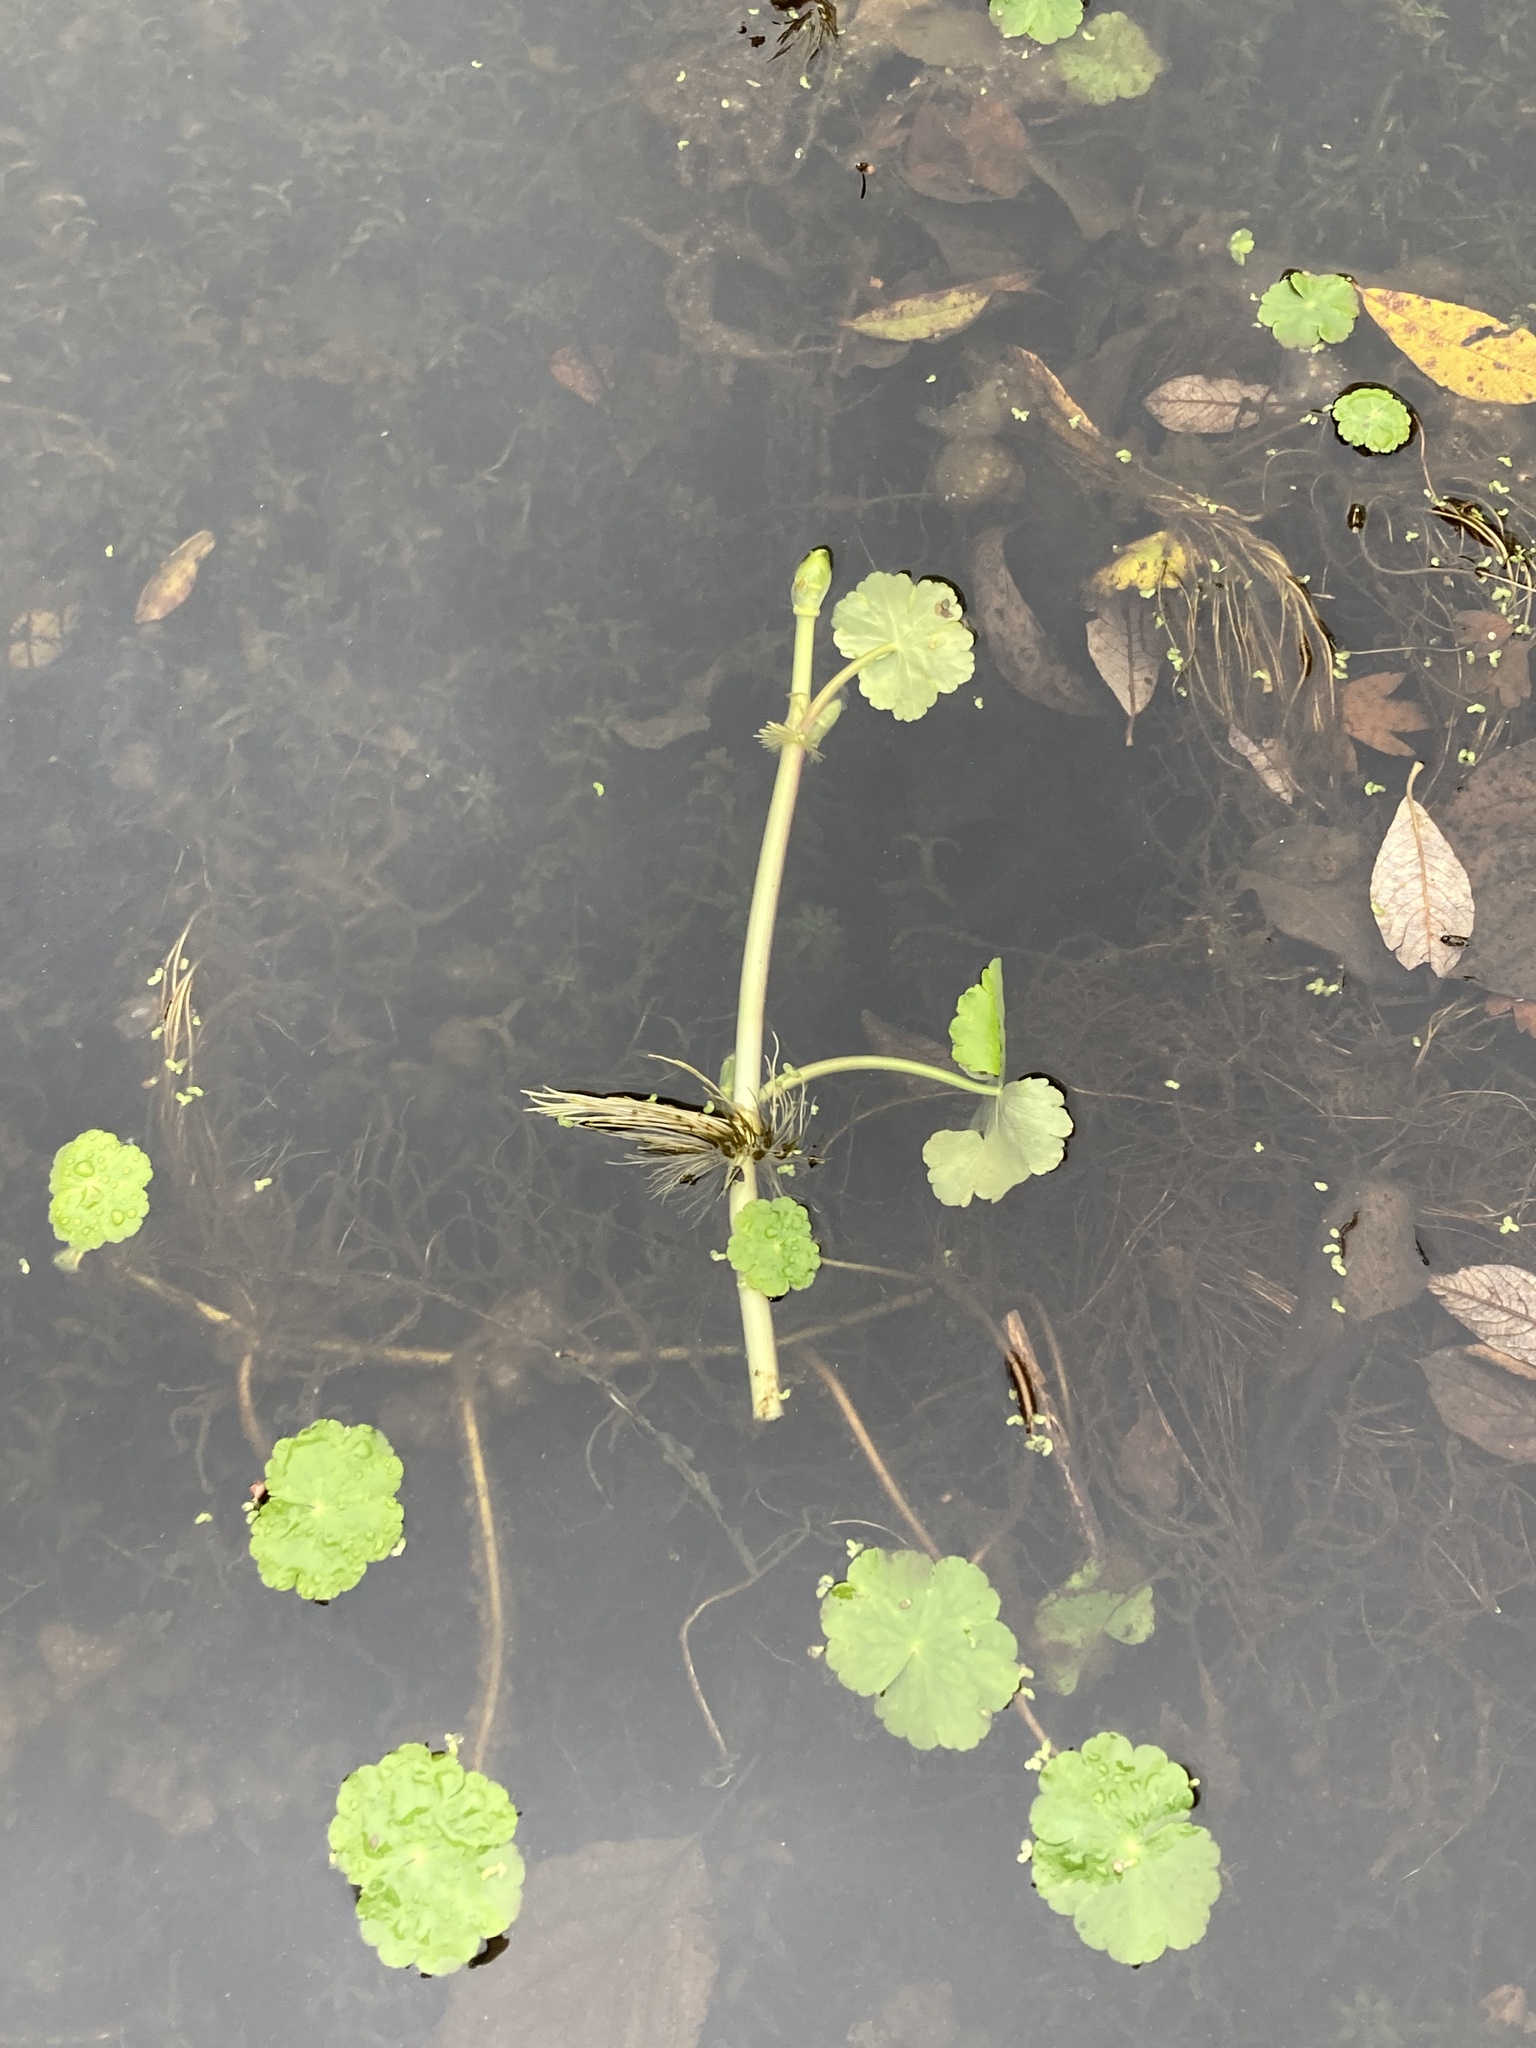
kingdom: Plantae
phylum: Tracheophyta
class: Magnoliopsida
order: Apiales
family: Araliaceae
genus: Hydrocotyle
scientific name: Hydrocotyle ranunculoides
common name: Floating pennywort
